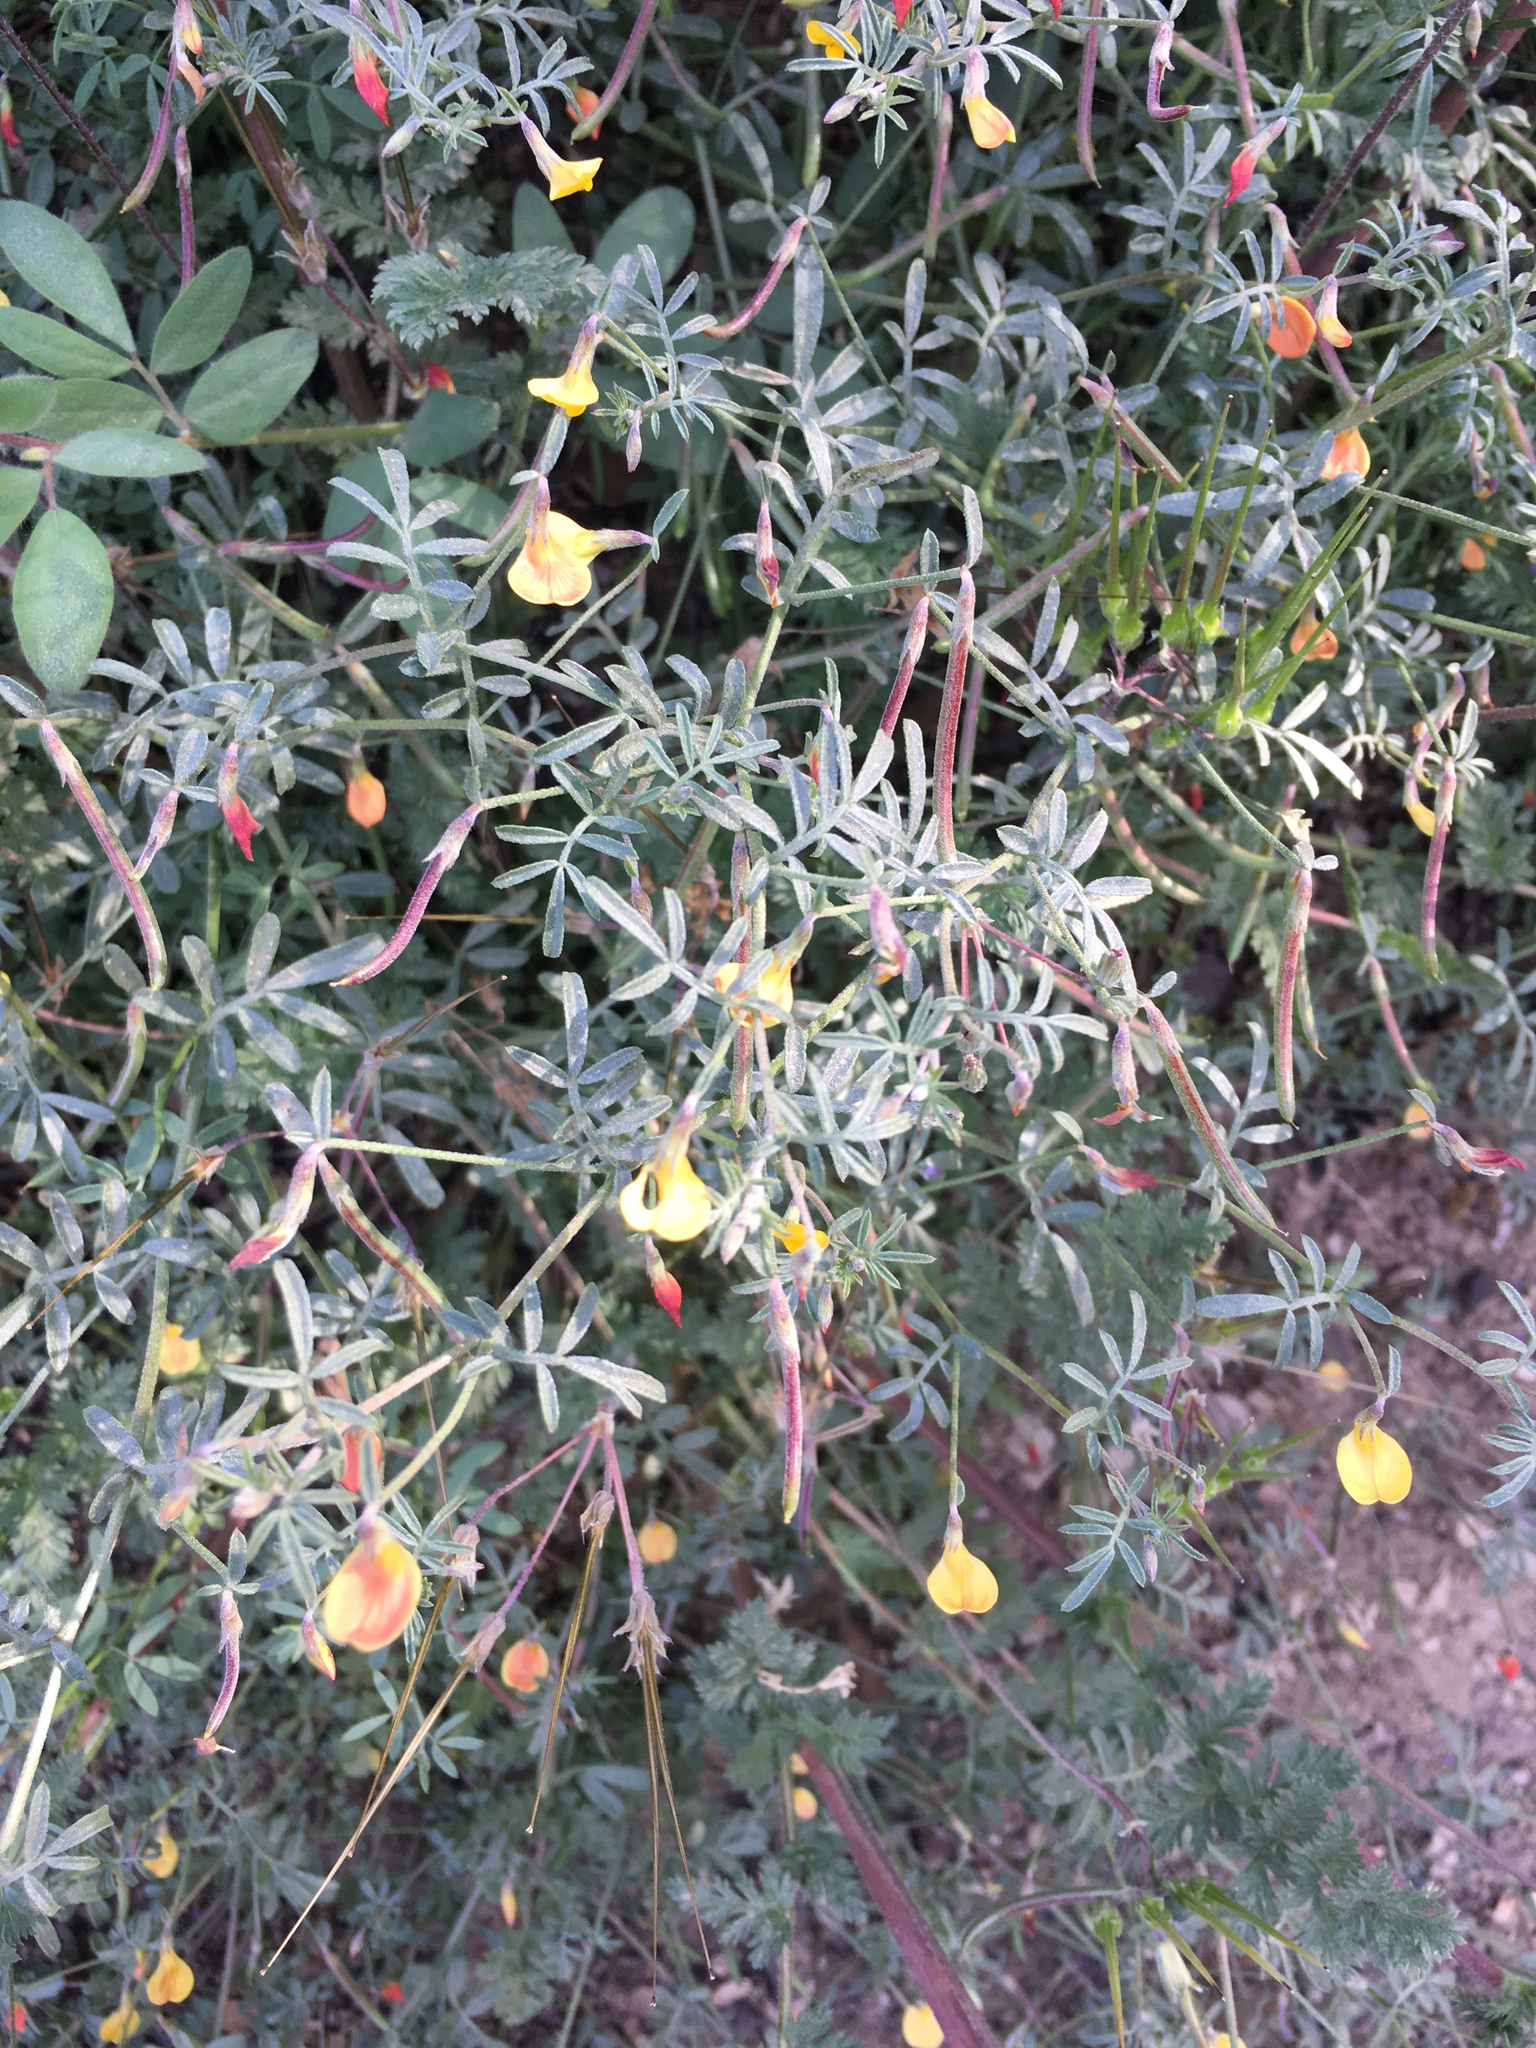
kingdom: Plantae
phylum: Tracheophyta
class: Magnoliopsida
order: Fabales
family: Fabaceae
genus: Acmispon
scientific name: Acmispon strigosus
